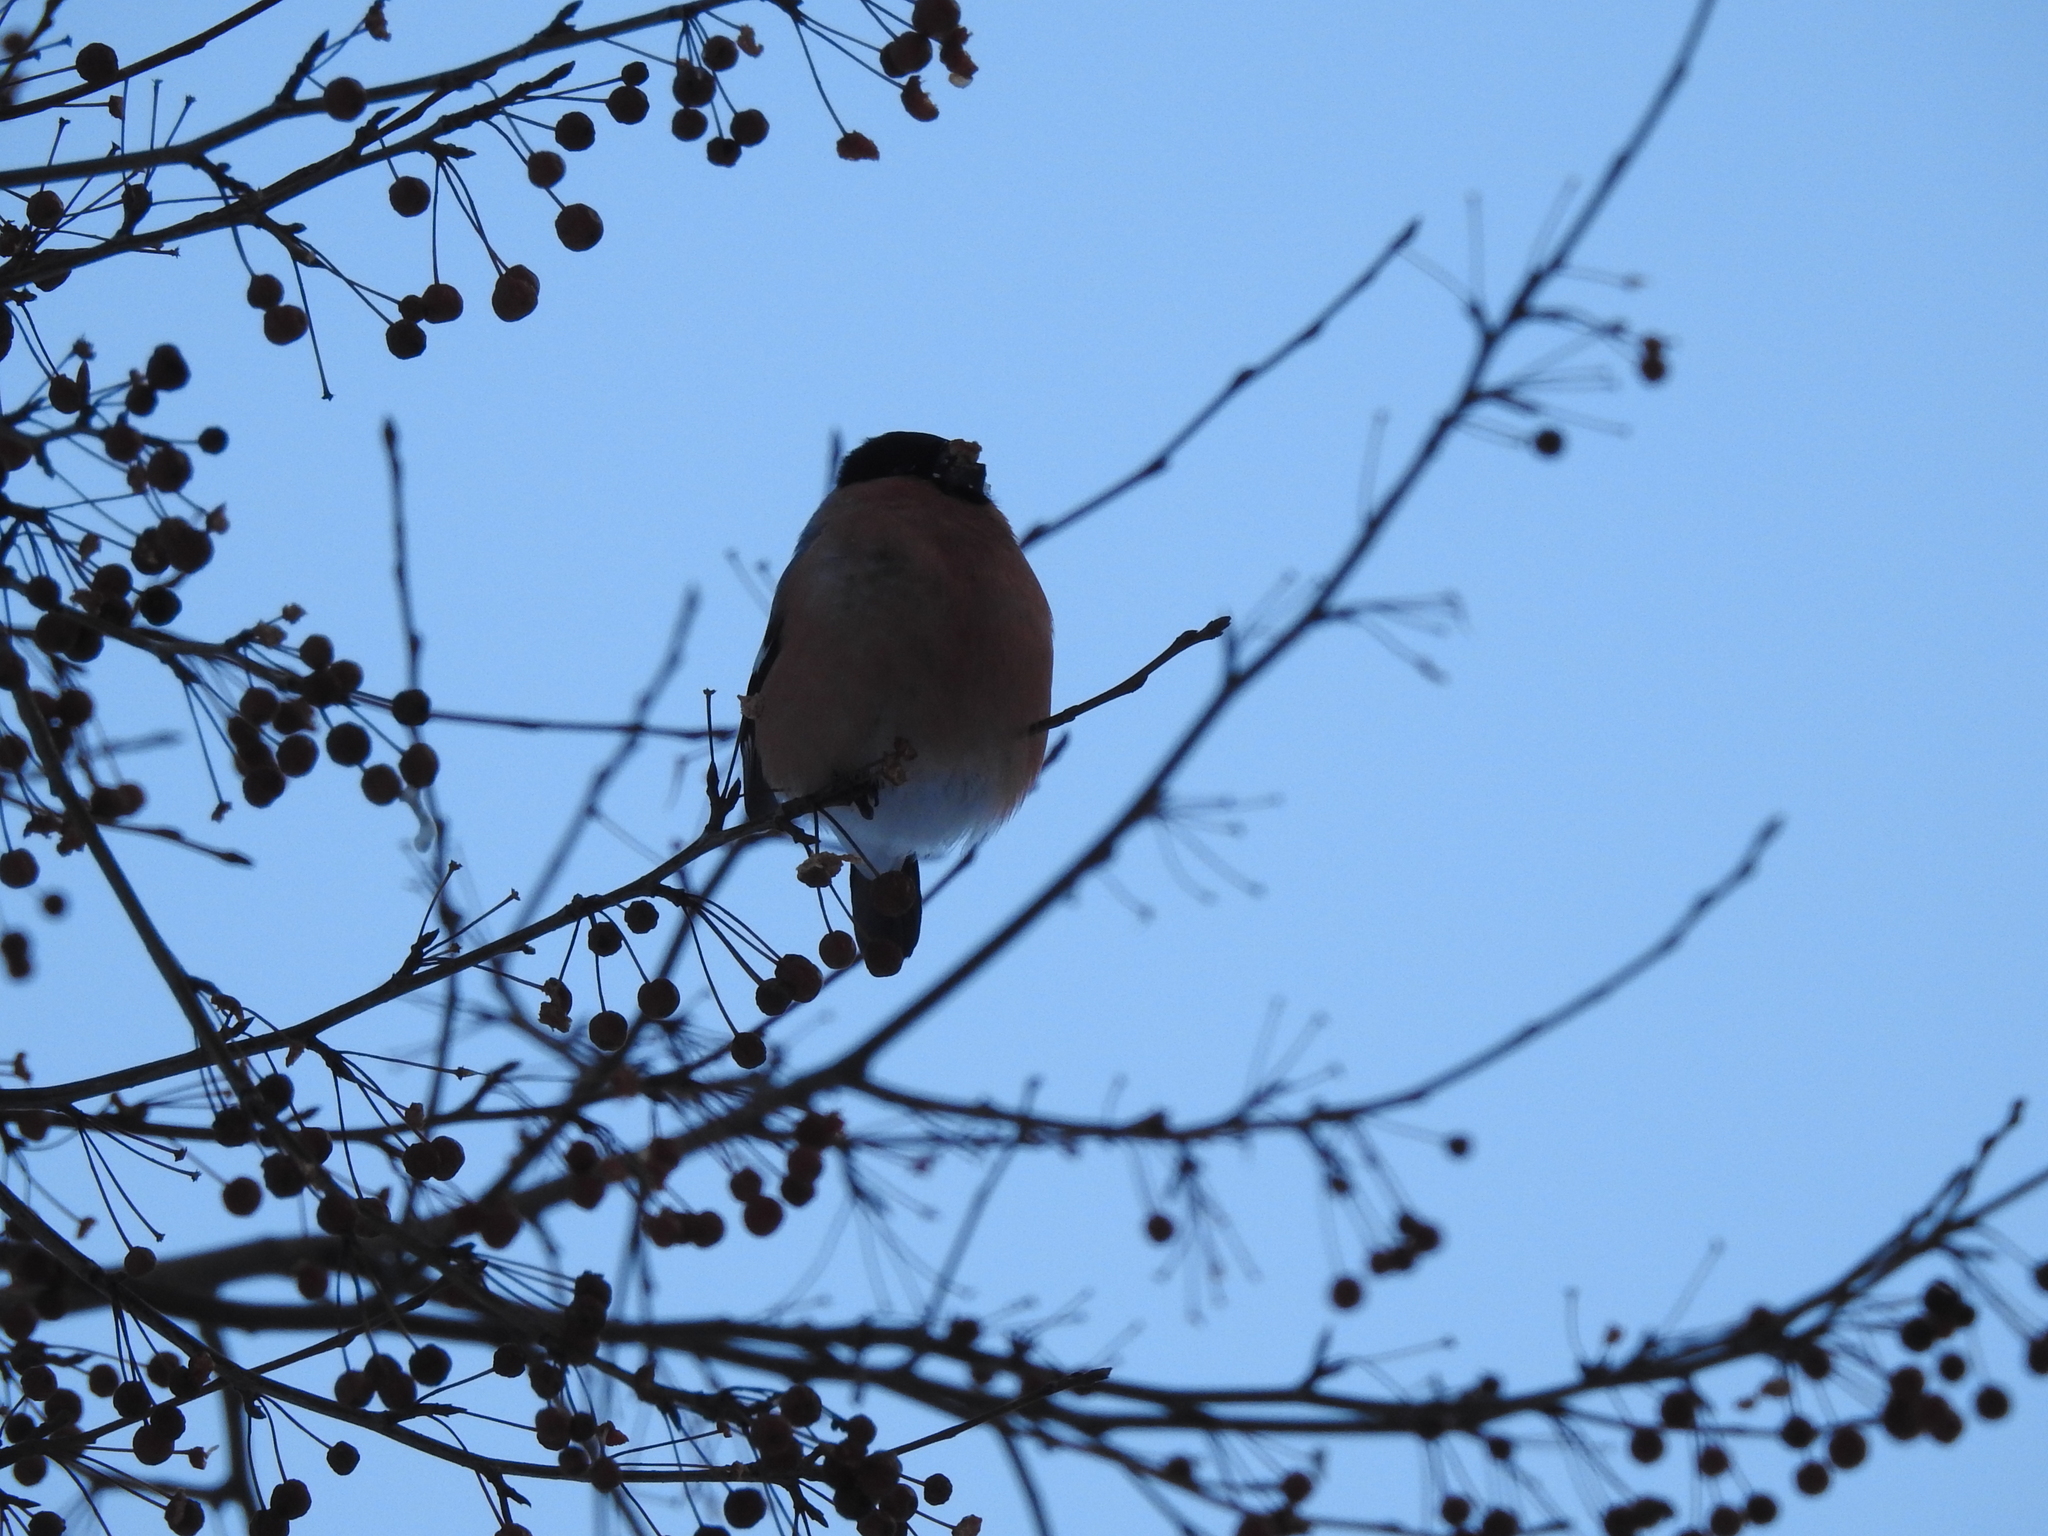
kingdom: Animalia
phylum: Chordata
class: Aves
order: Passeriformes
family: Fringillidae
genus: Pyrrhula
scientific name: Pyrrhula pyrrhula
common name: Eurasian bullfinch
